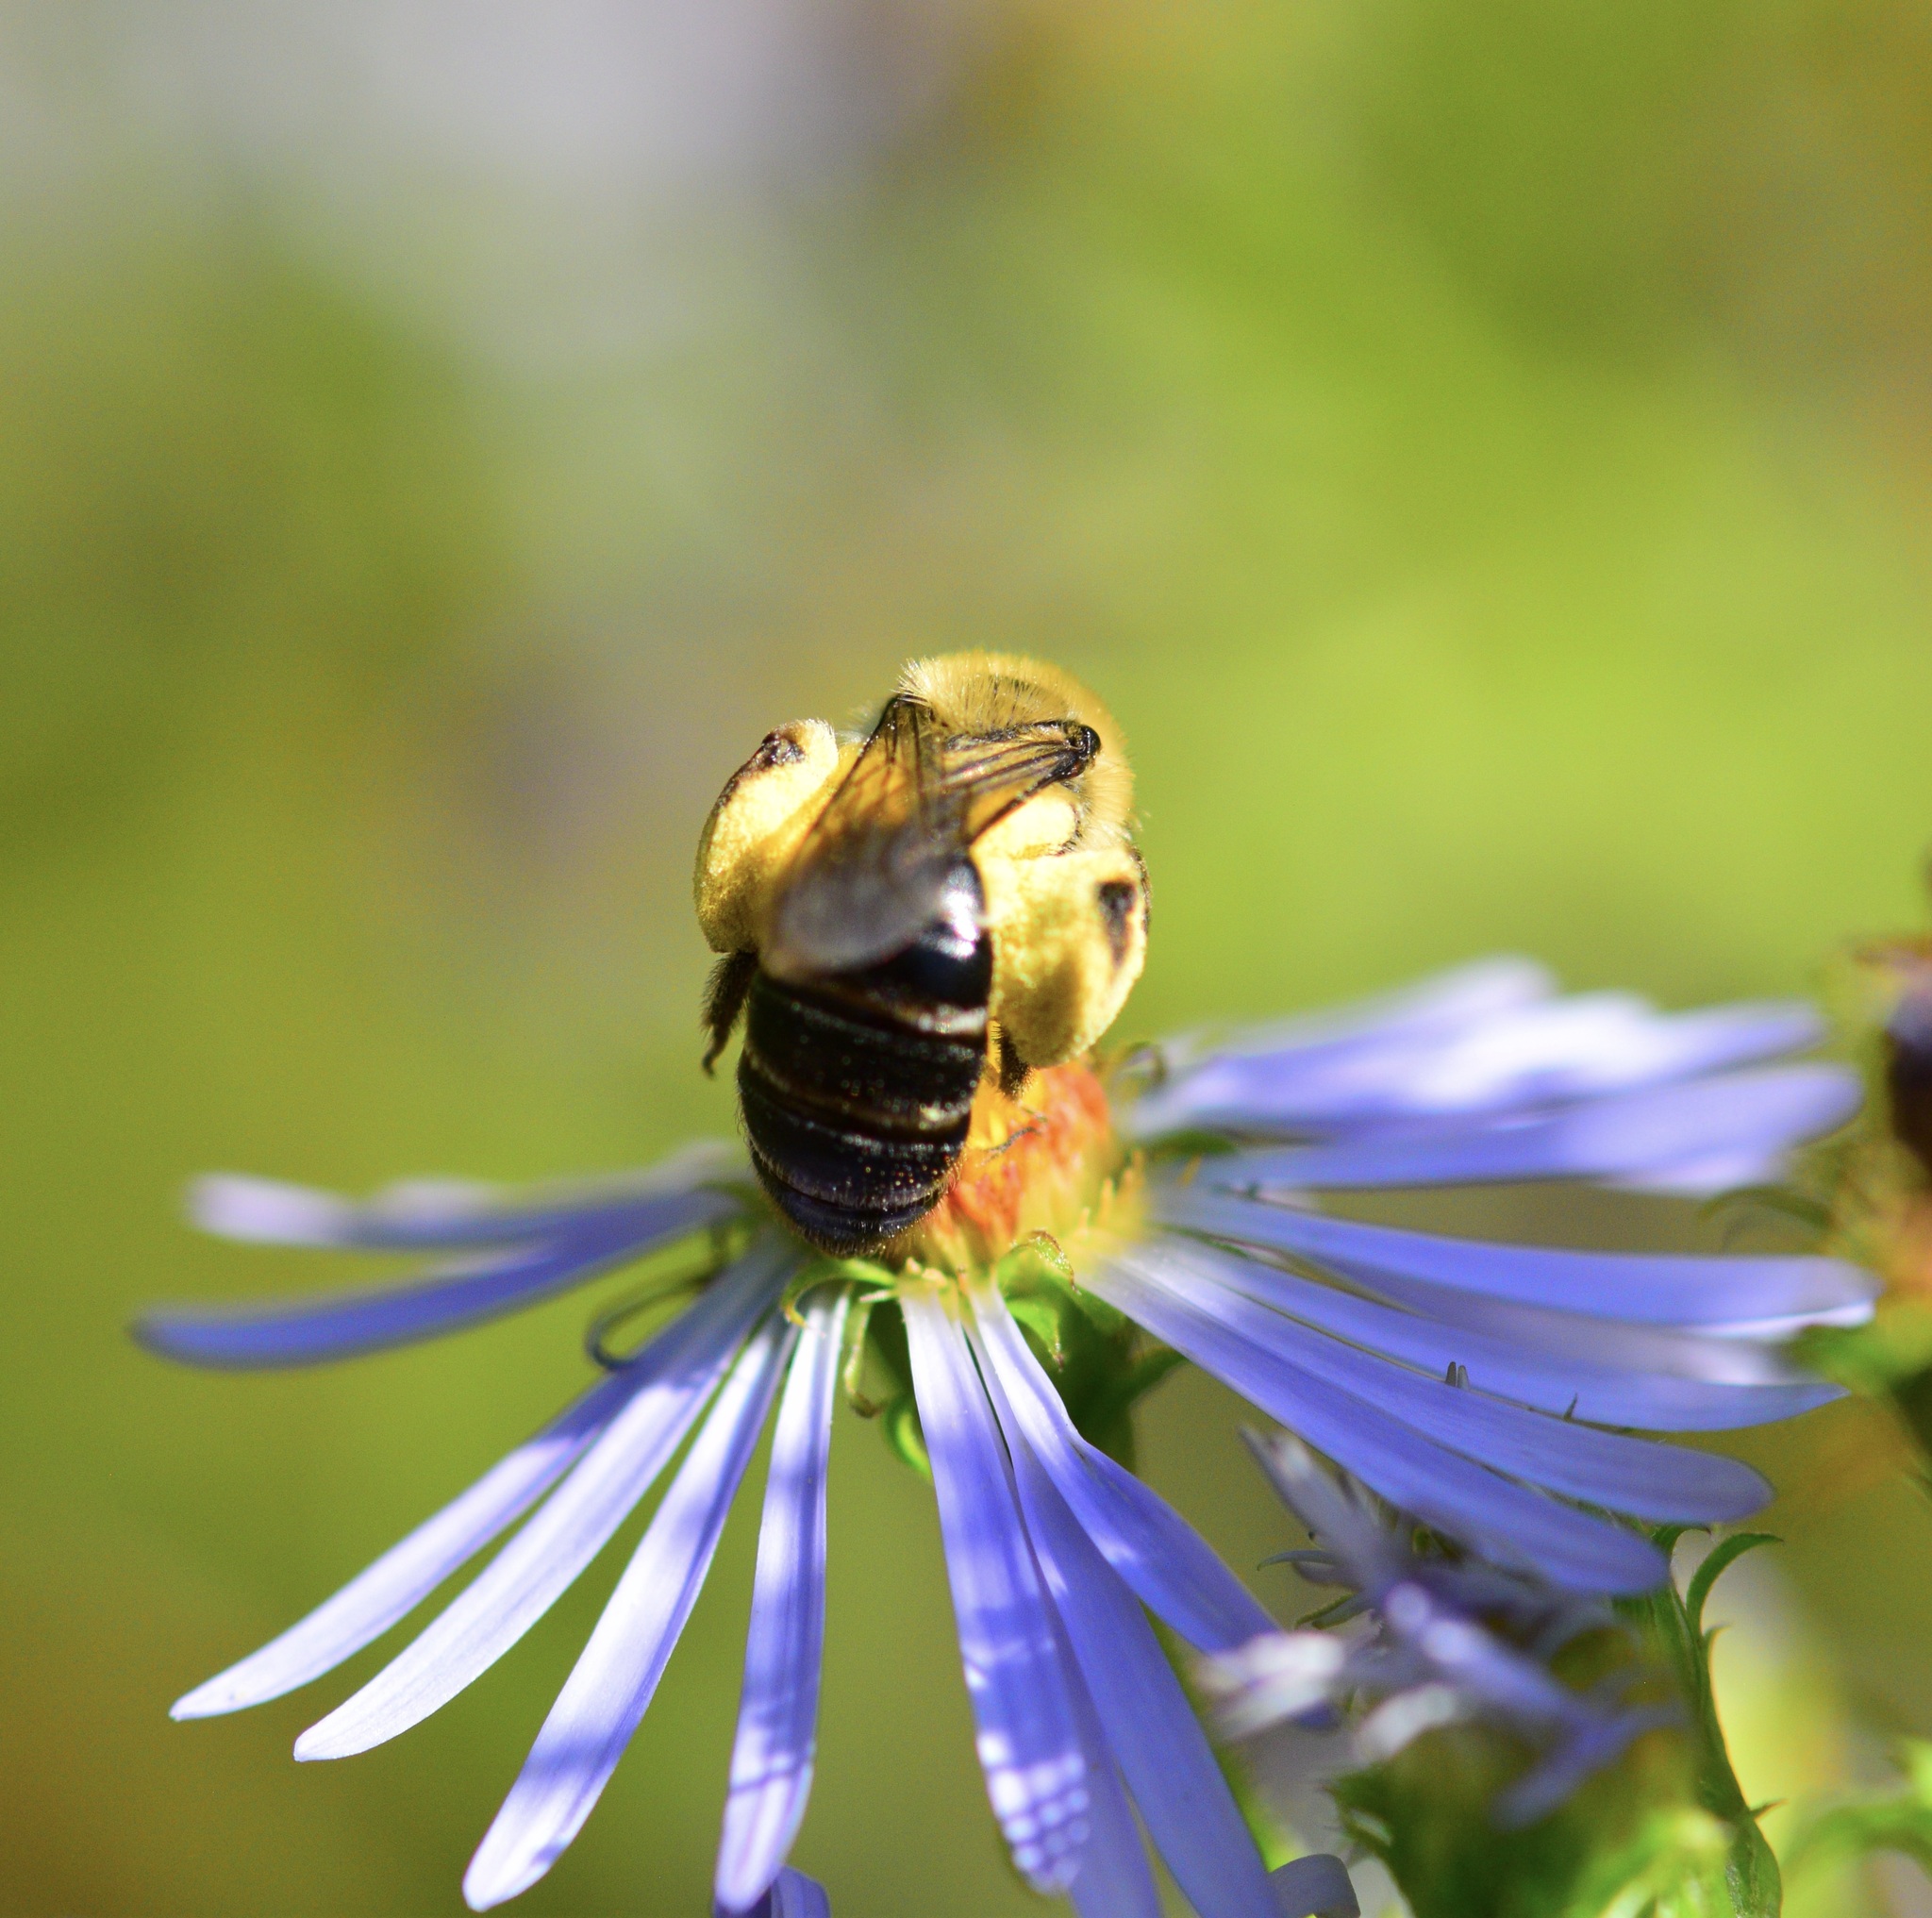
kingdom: Animalia
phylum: Arthropoda
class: Insecta
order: Hymenoptera
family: Andrenidae
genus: Andrena
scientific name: Andrena asteris
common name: Aster mining bee
